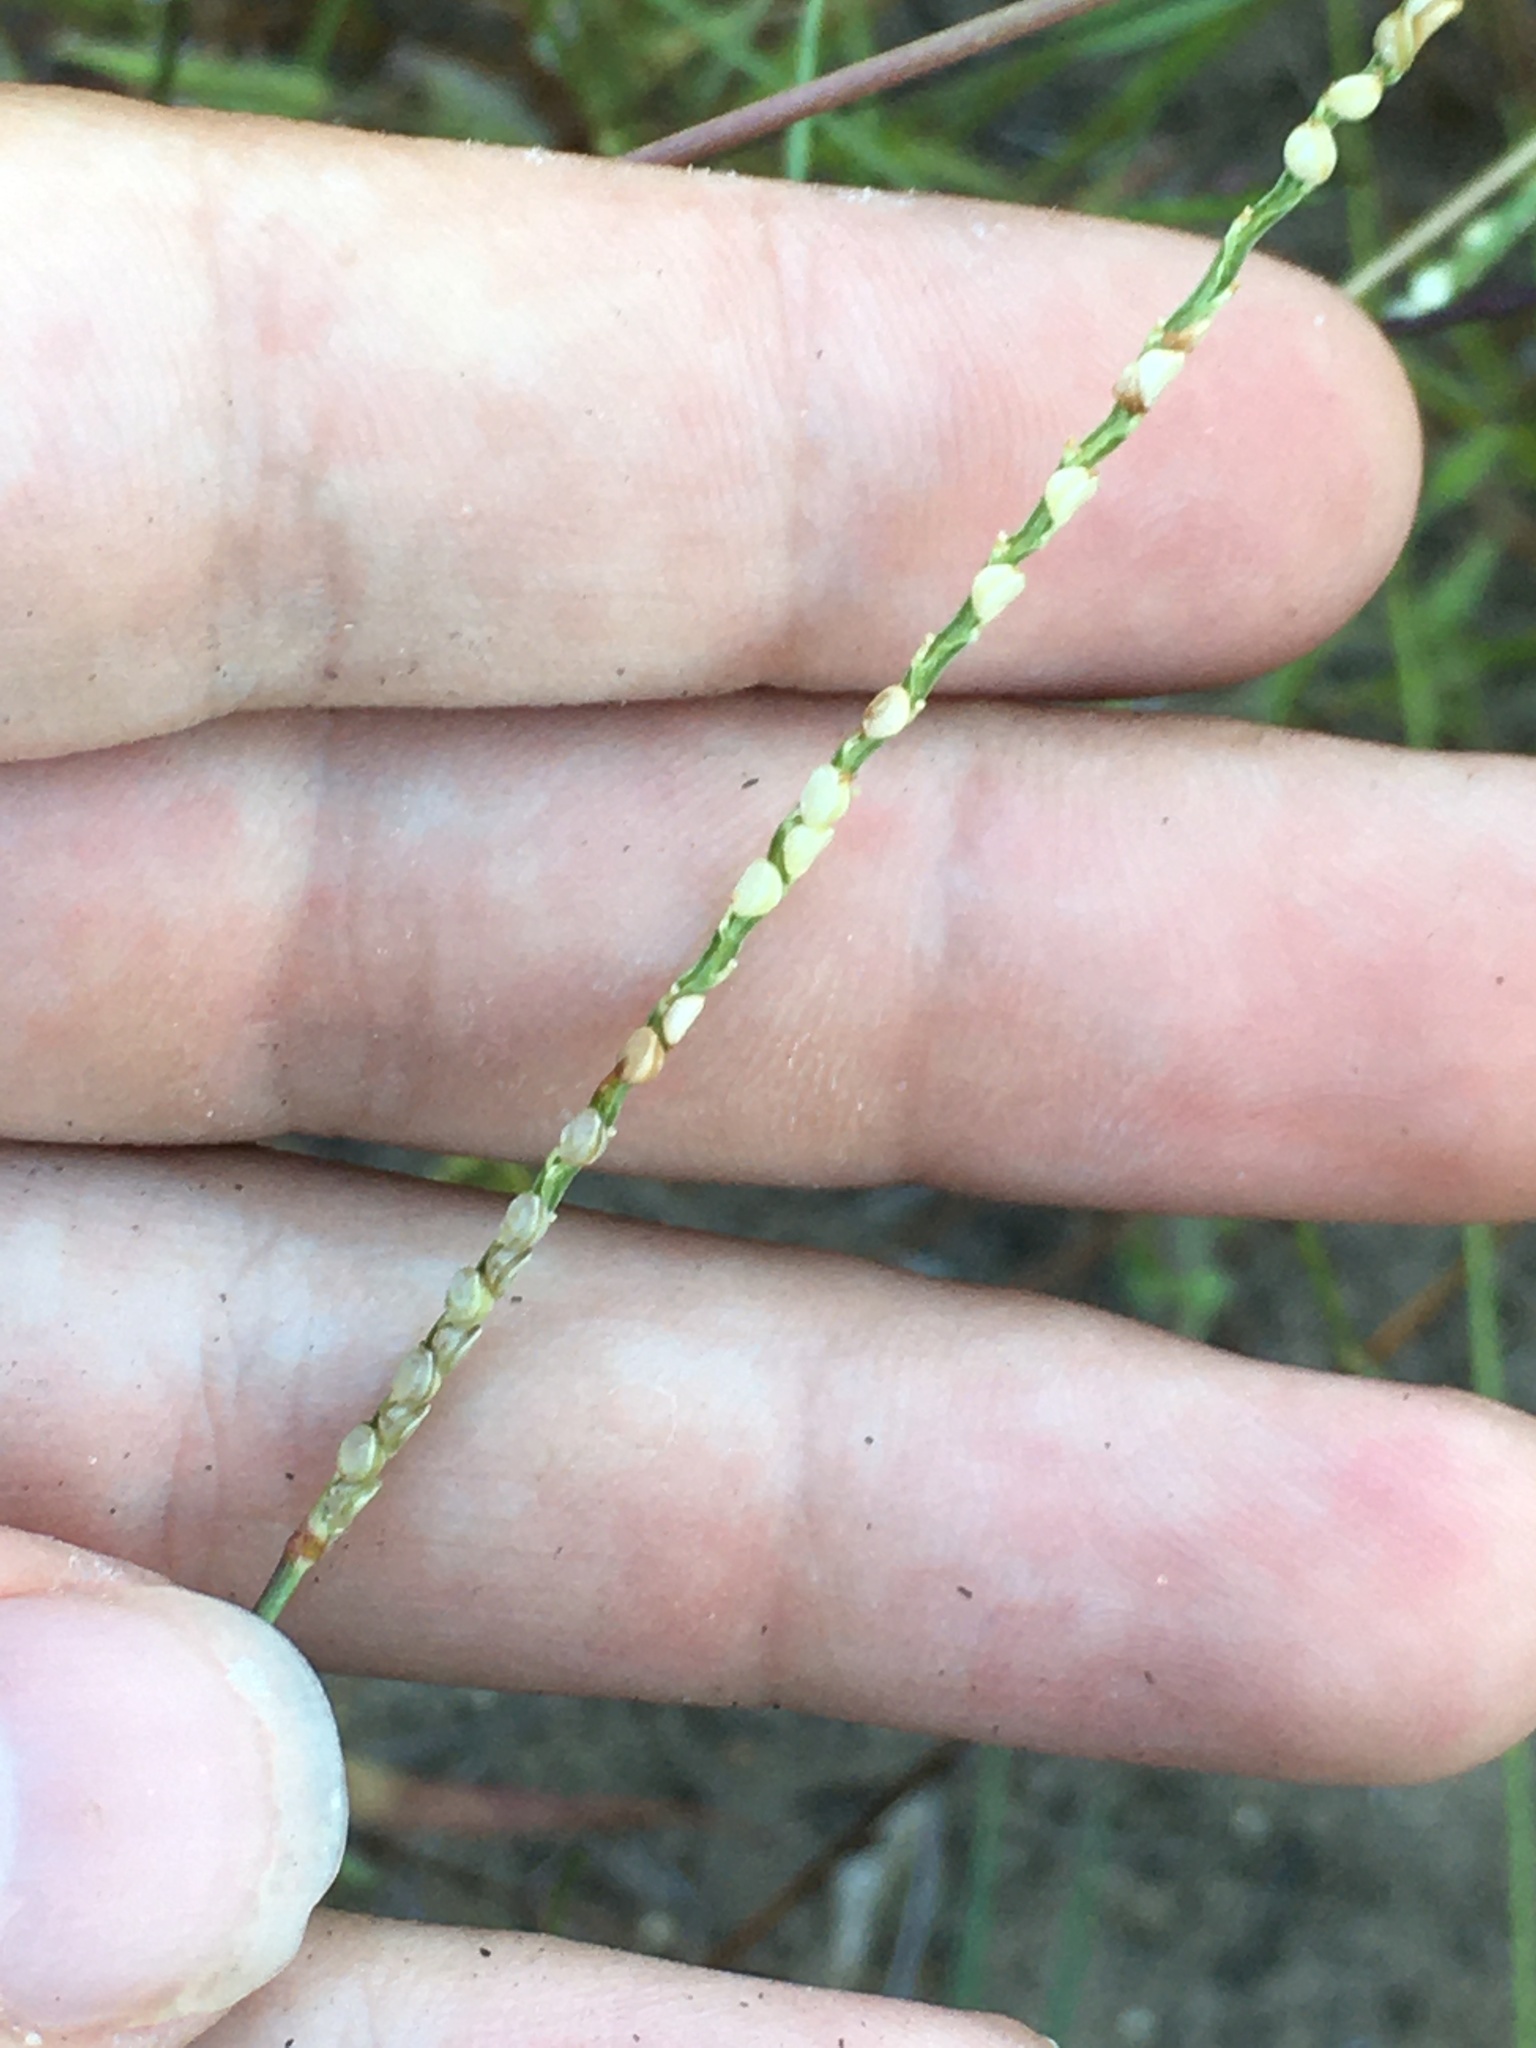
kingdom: Plantae
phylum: Tracheophyta
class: Liliopsida
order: Poales
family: Poaceae
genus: Paspalum
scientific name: Paspalum setaceum
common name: Slender paspalum
